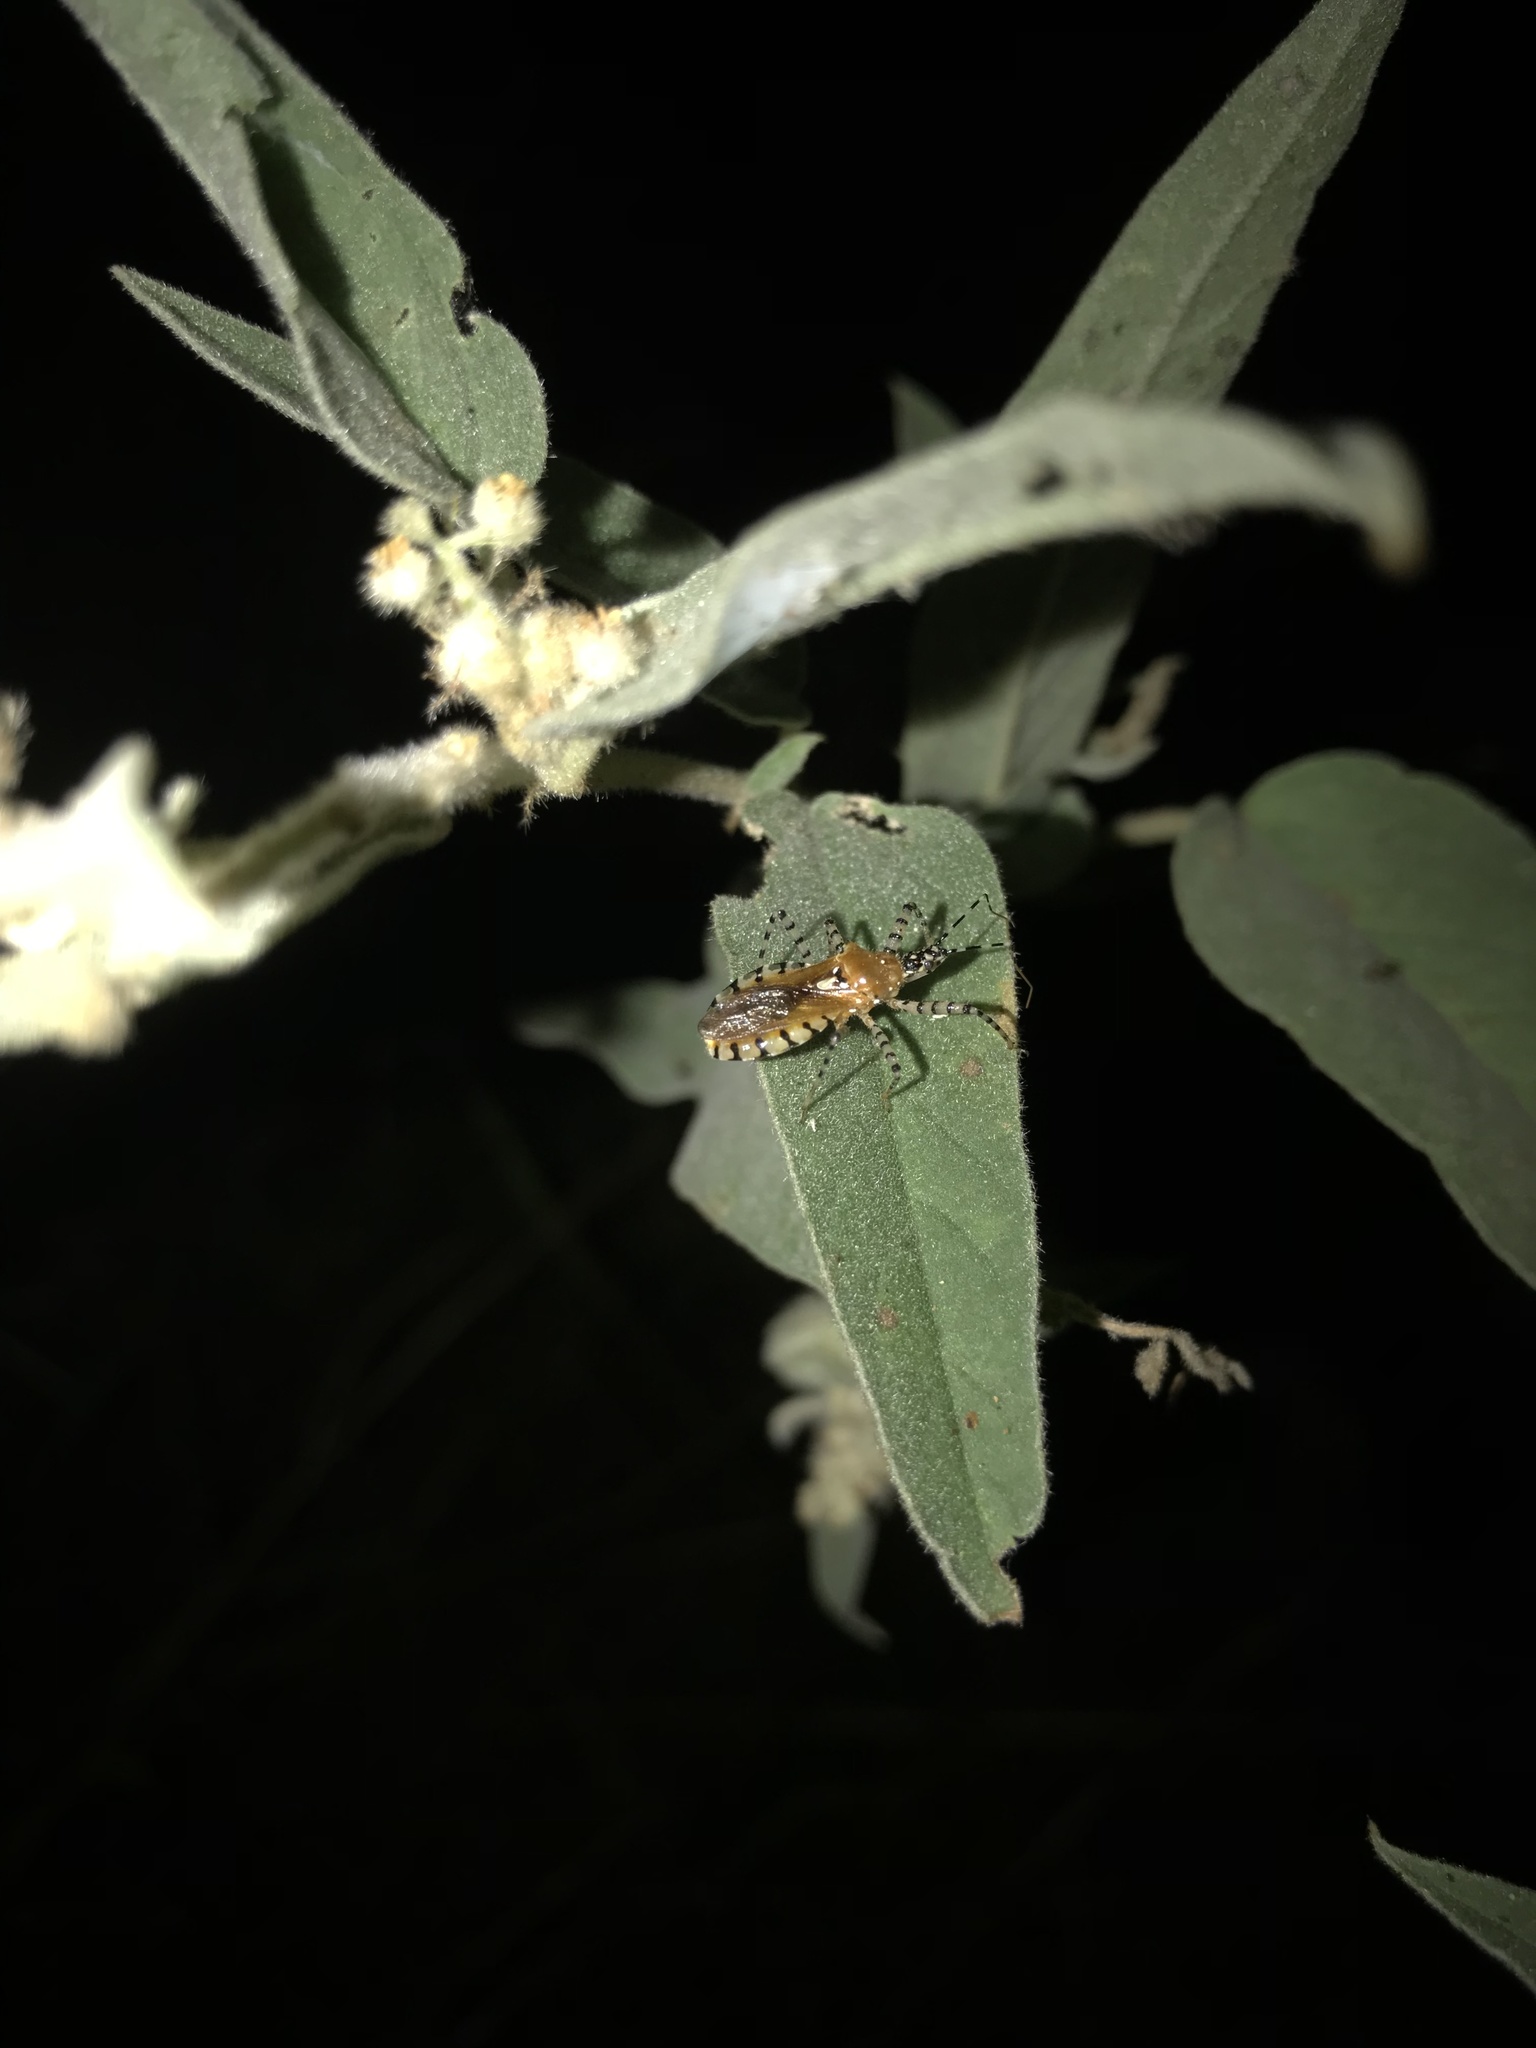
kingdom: Animalia
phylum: Arthropoda
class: Insecta
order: Hemiptera
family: Reduviidae
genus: Pselliopus
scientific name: Pselliopus cinctus
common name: Ringed assassin bug
